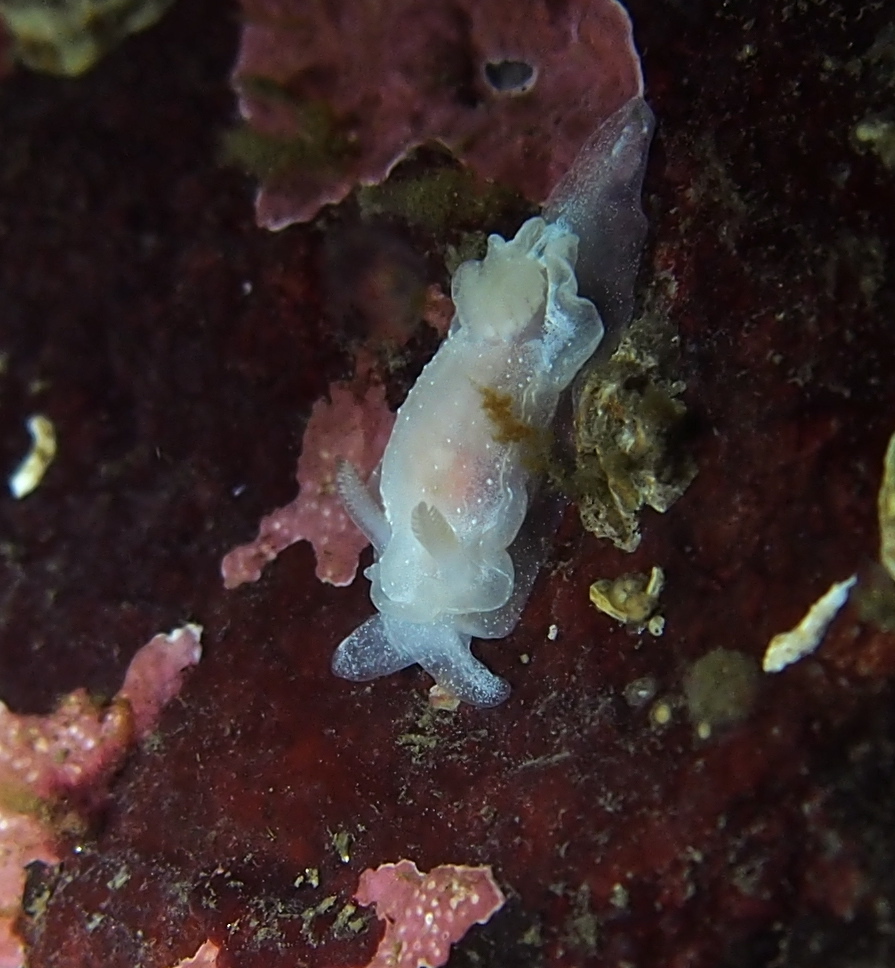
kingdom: Animalia
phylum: Mollusca
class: Gastropoda
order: Nudibranchia
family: Goniodorididae
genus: Okenia
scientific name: Okenia
